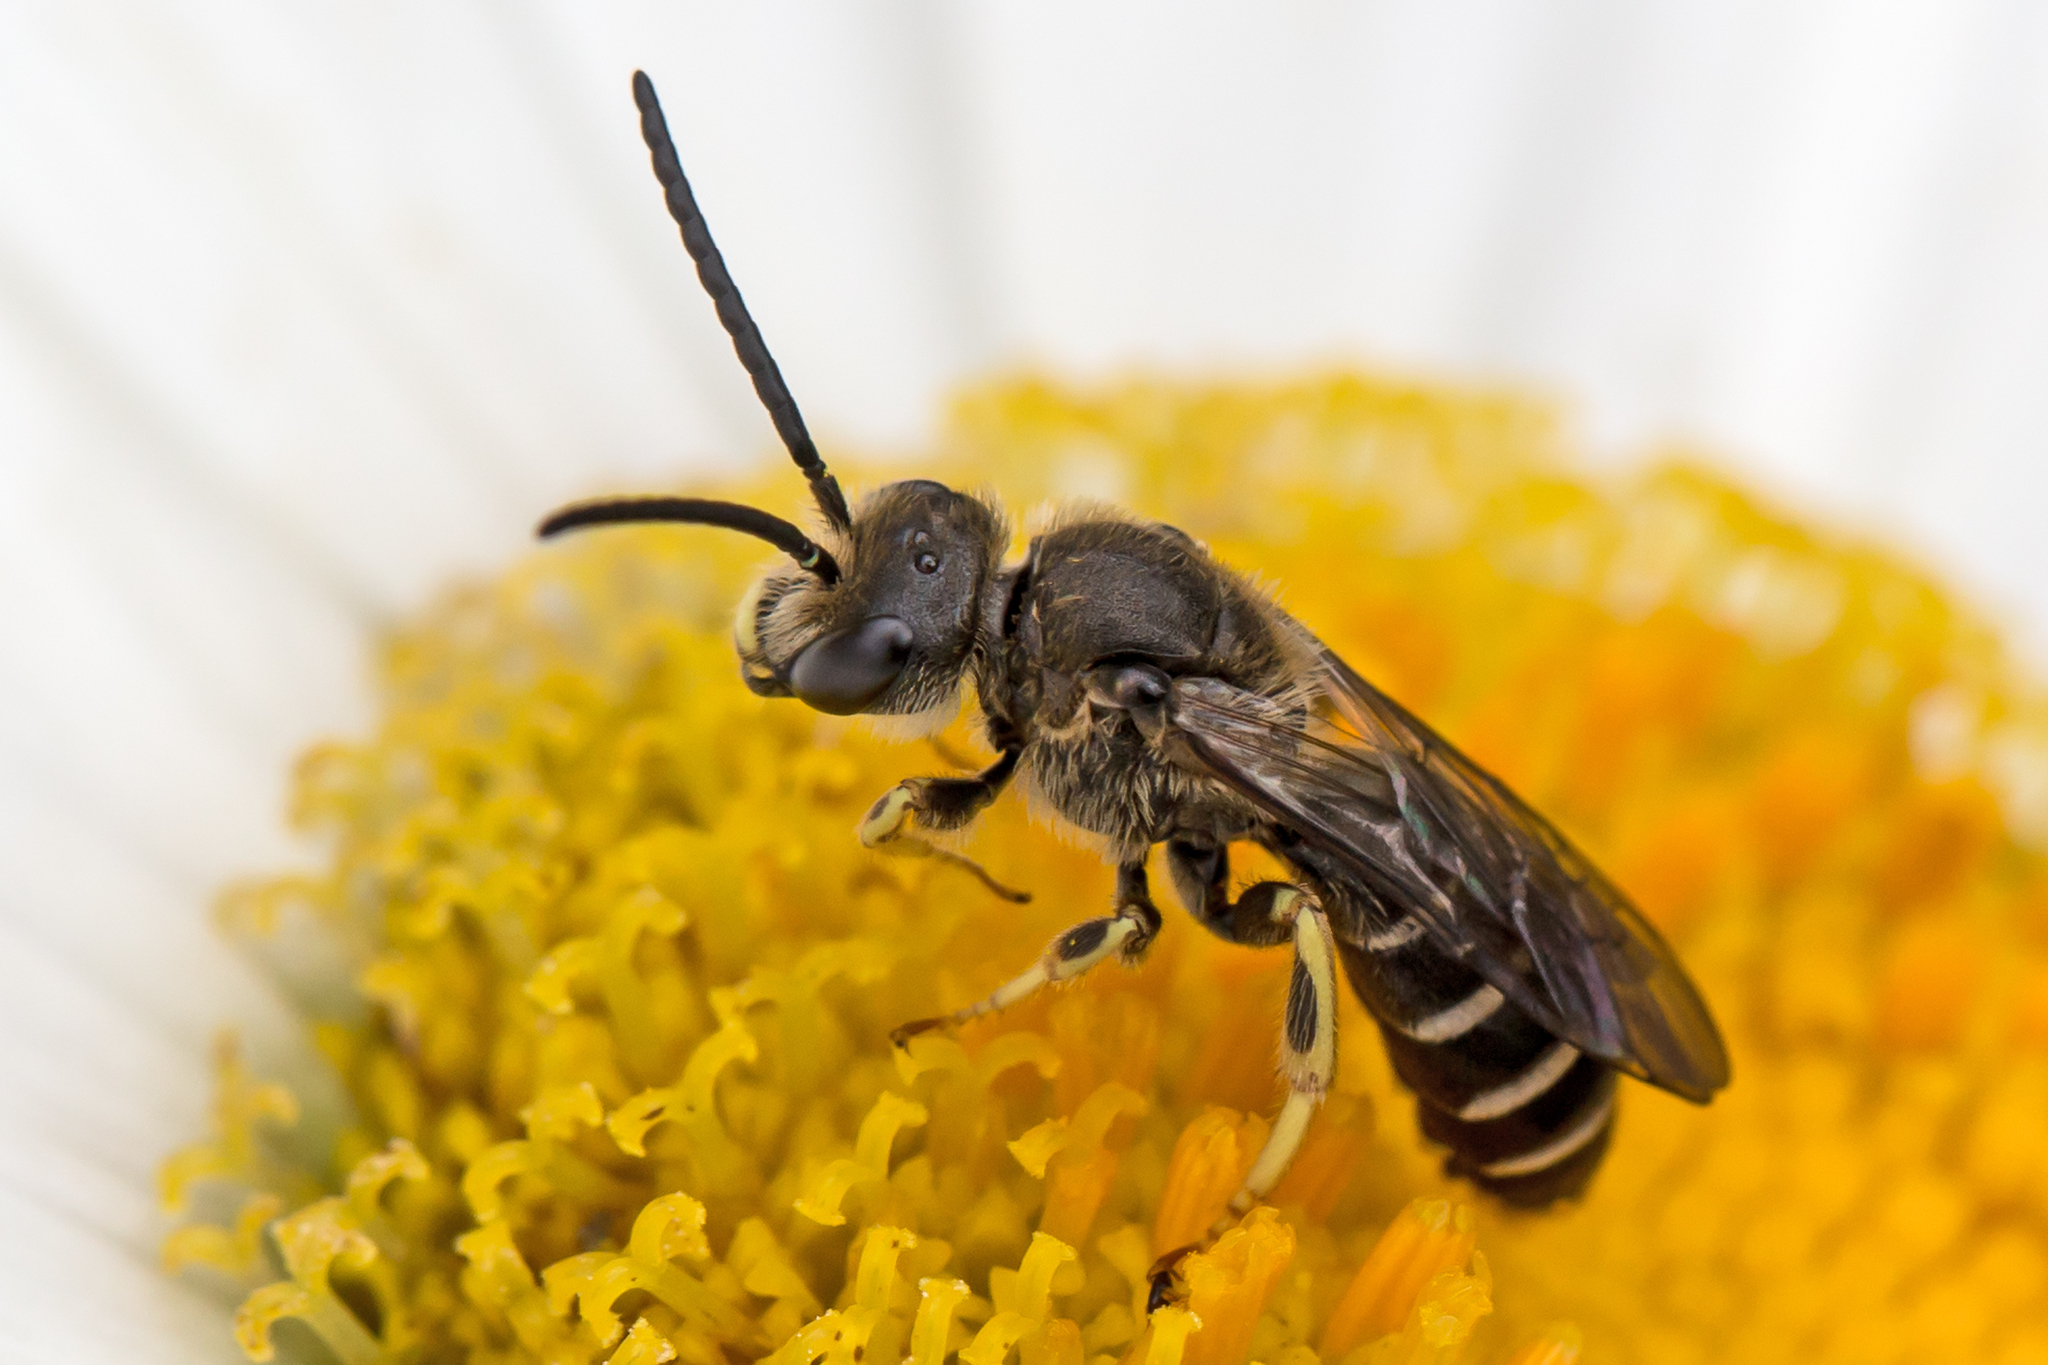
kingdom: Animalia
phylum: Arthropoda
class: Insecta
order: Hymenoptera
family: Halictidae
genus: Halictus
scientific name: Halictus rubicundus
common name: Orange-legged furrow bee
